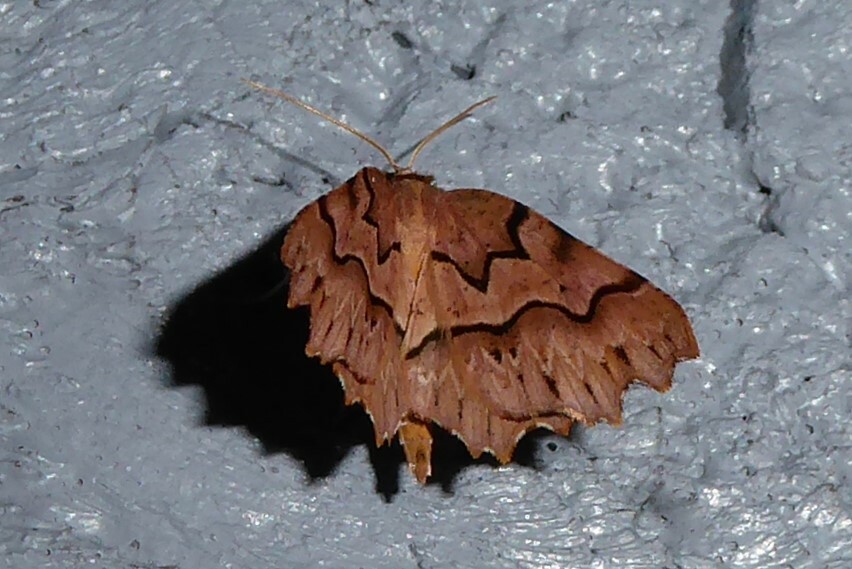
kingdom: Animalia
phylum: Arthropoda
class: Insecta
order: Lepidoptera
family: Geometridae
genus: Ischalis
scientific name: Ischalis fortinata
